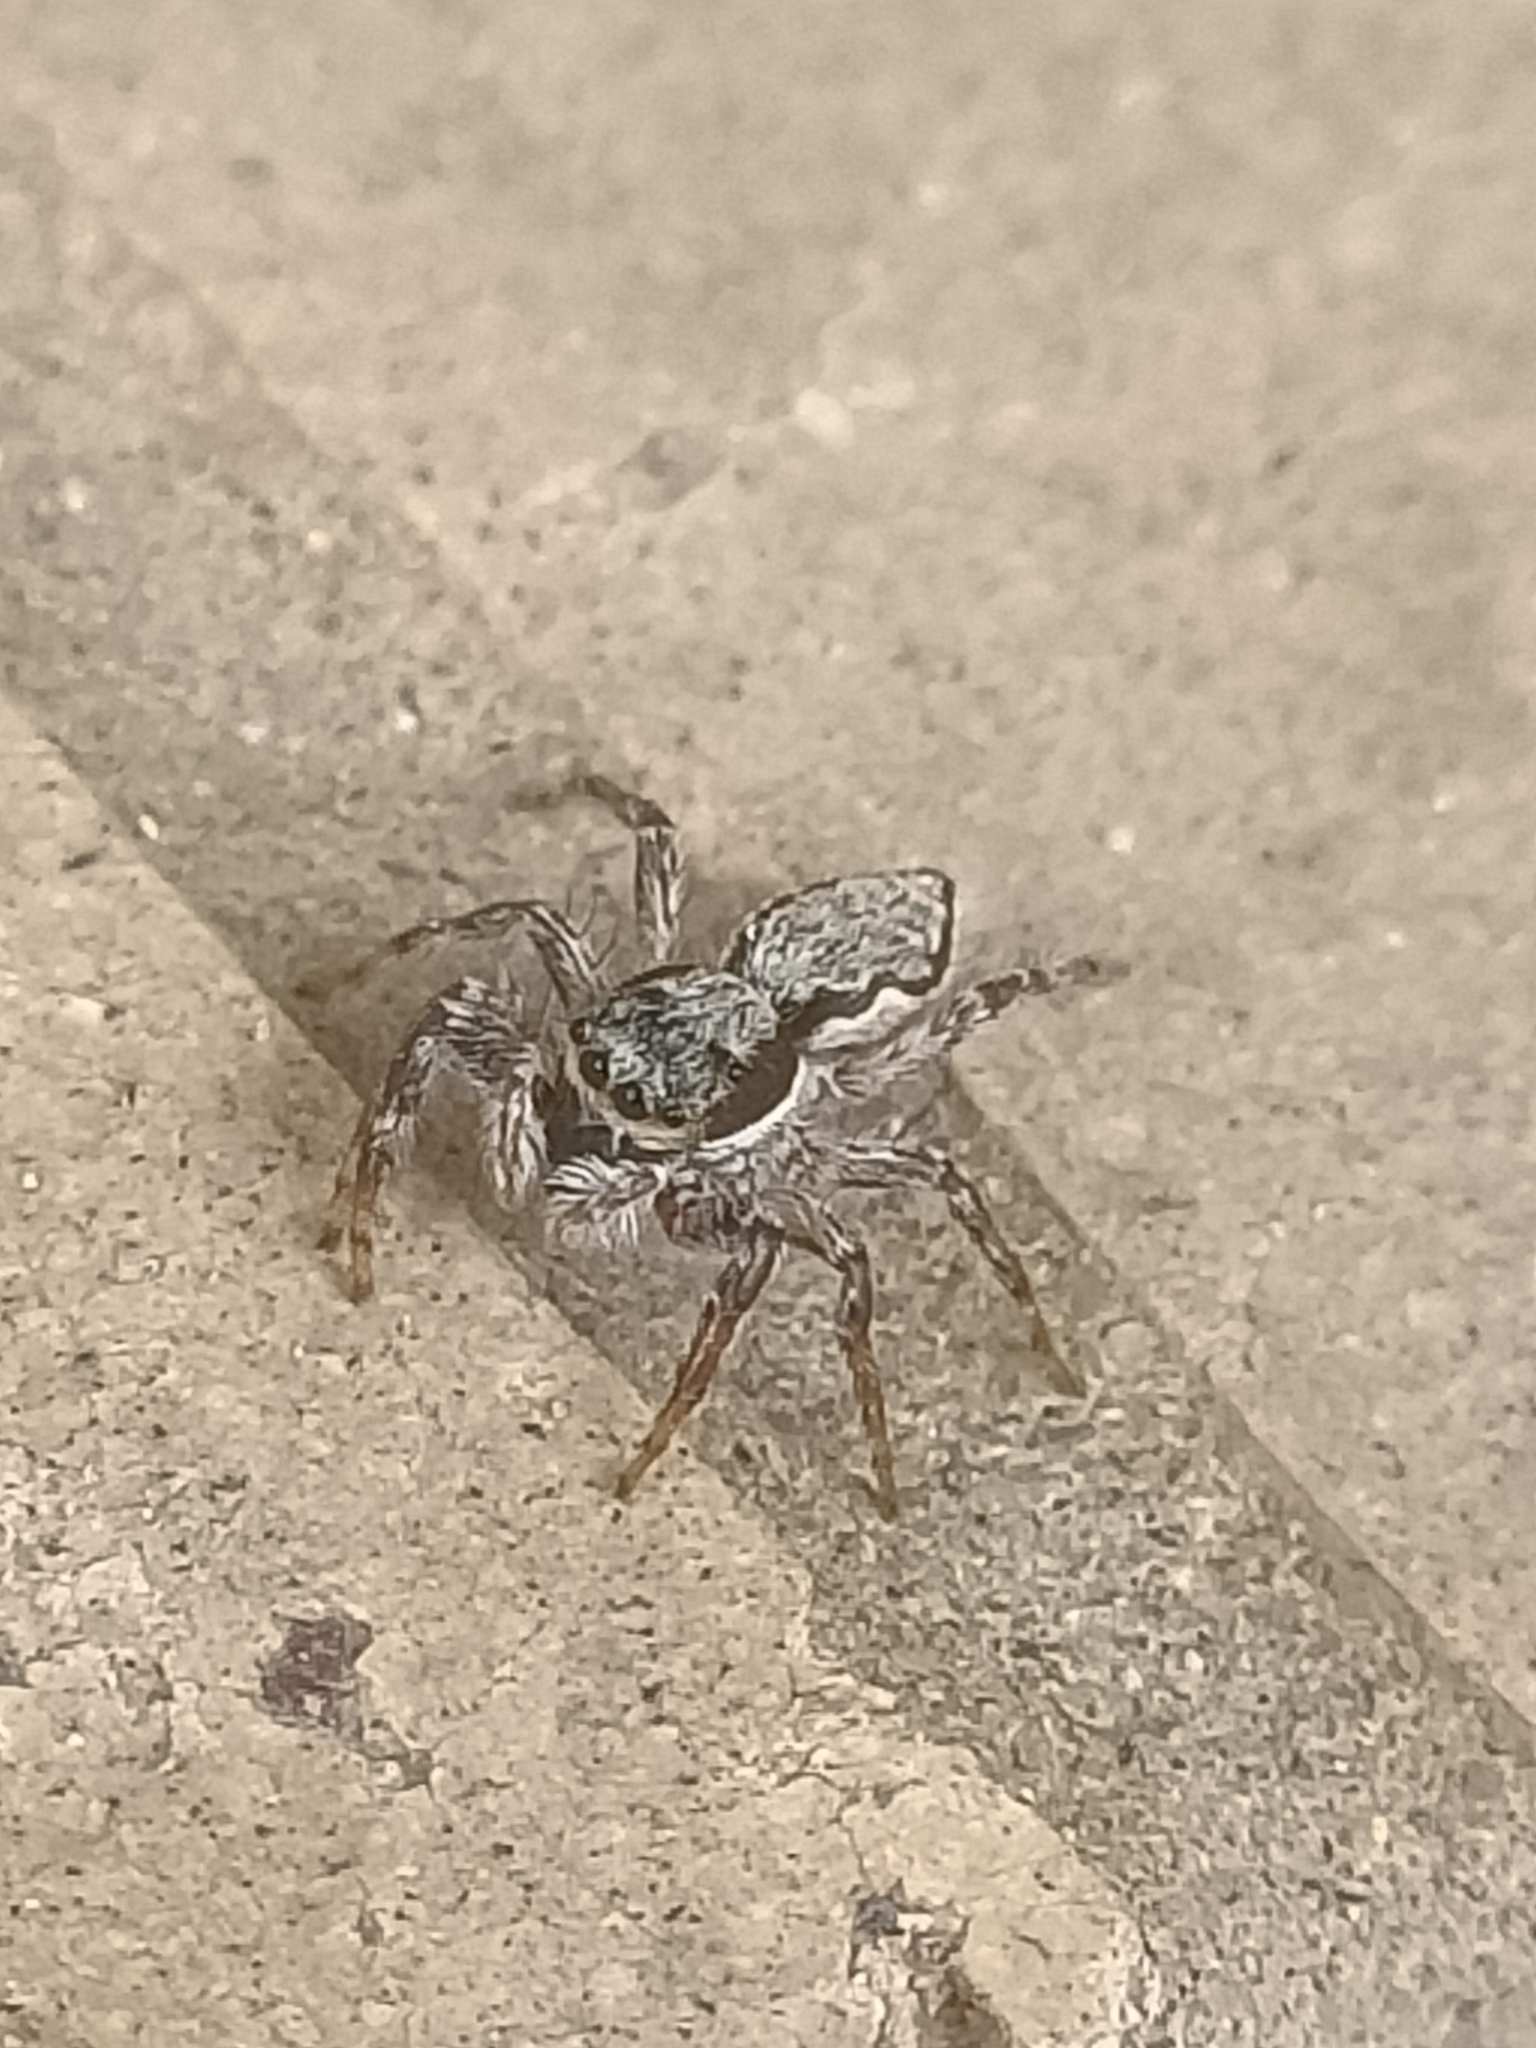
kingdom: Animalia
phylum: Arthropoda
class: Arachnida
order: Araneae
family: Salticidae
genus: Menemerus
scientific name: Menemerus bivittatus
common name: Gray wall jumper
